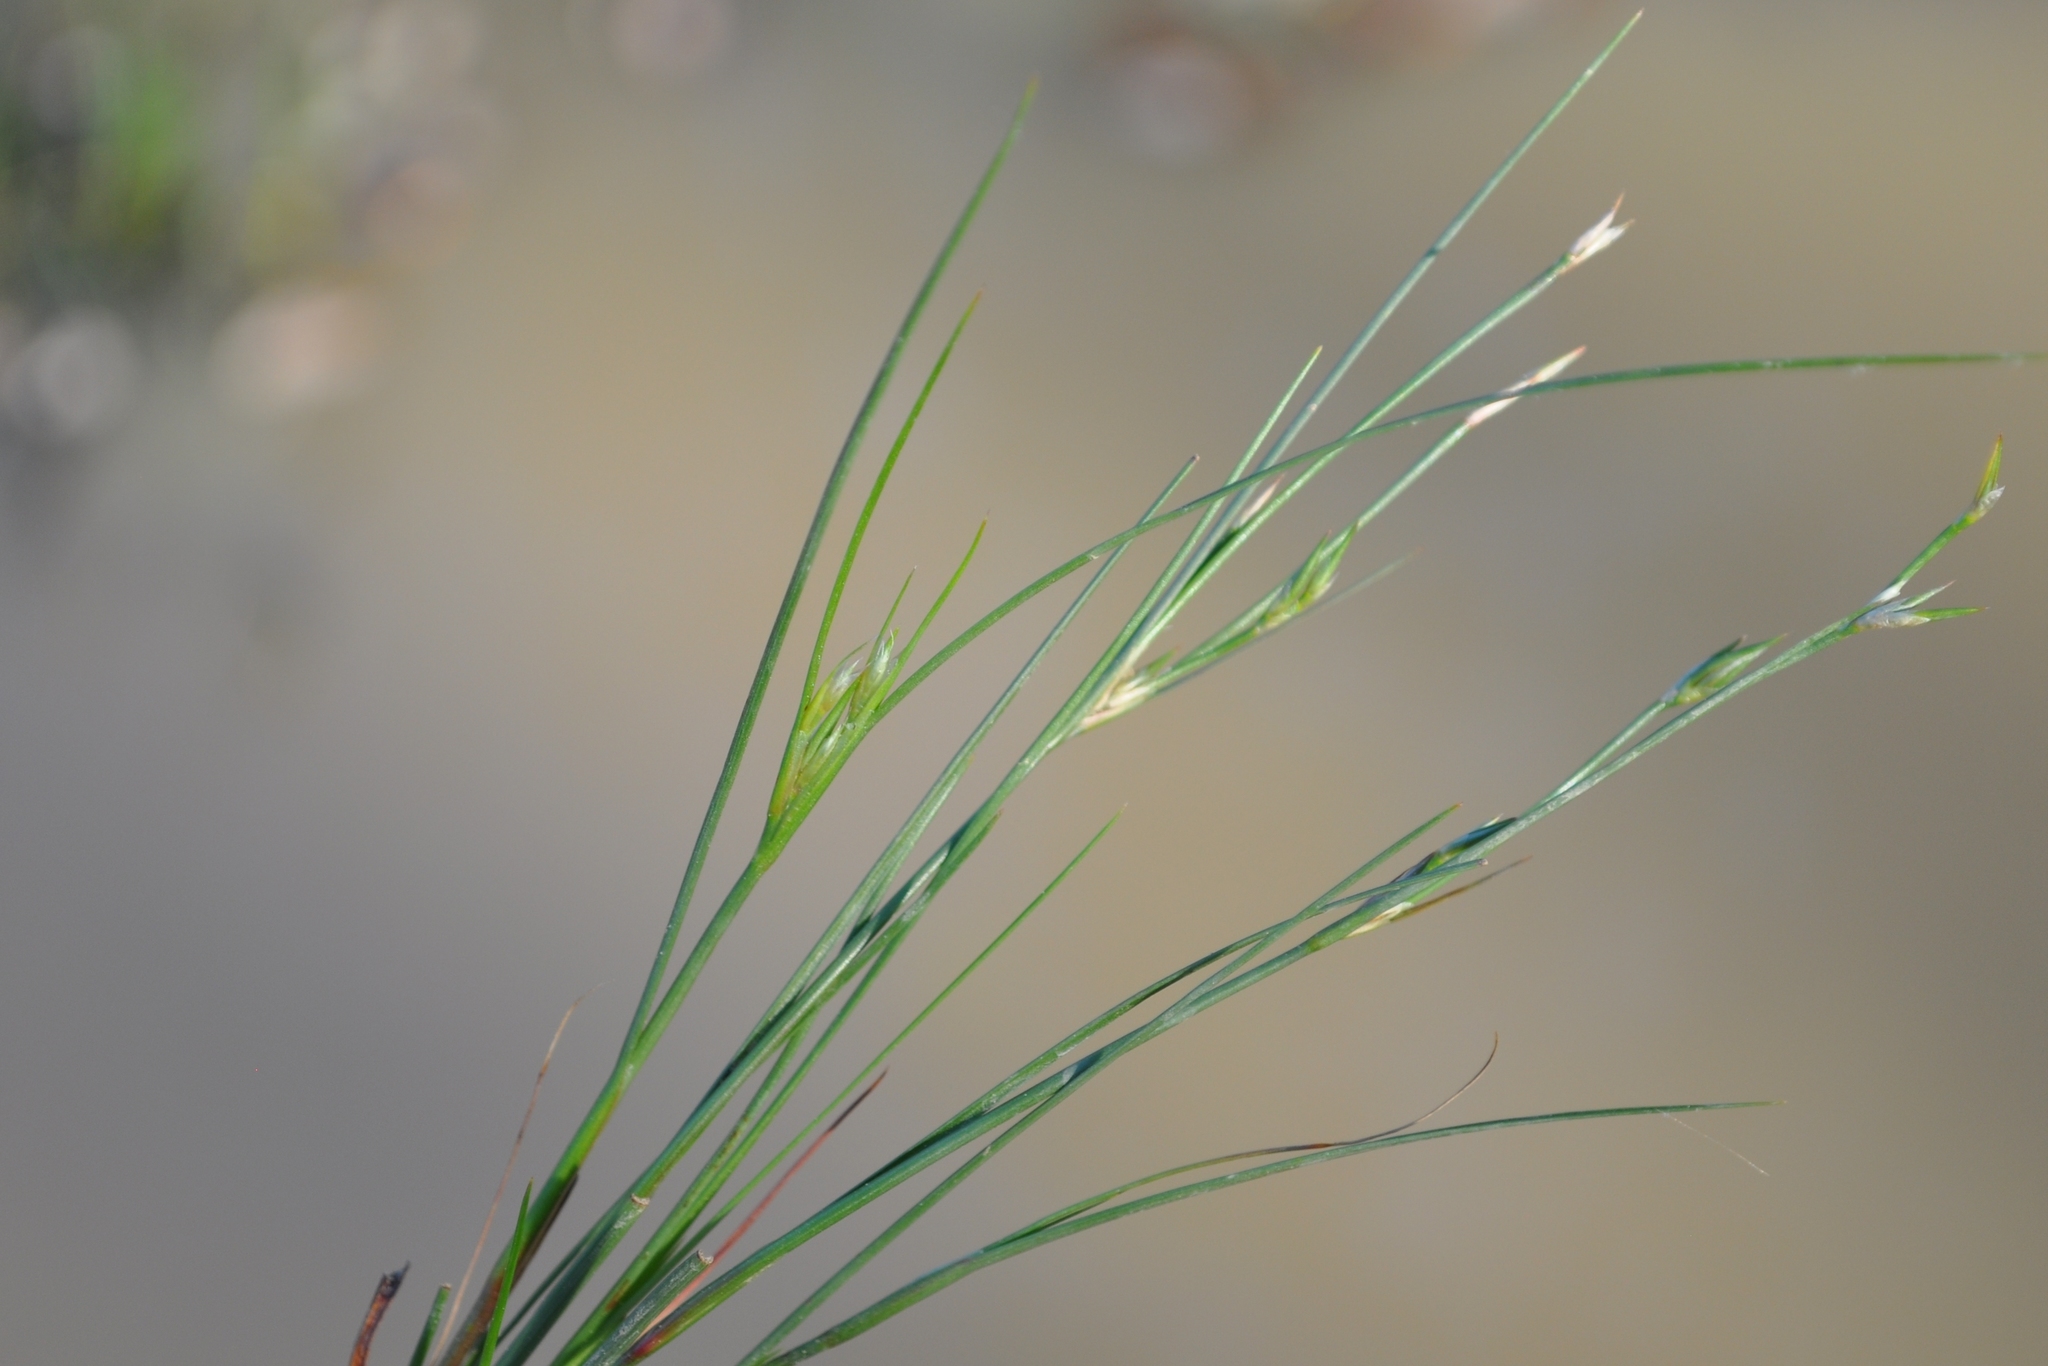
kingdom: Plantae
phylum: Tracheophyta
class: Liliopsida
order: Poales
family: Juncaceae
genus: Juncus
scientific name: Juncus bufonius
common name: Toad rush
